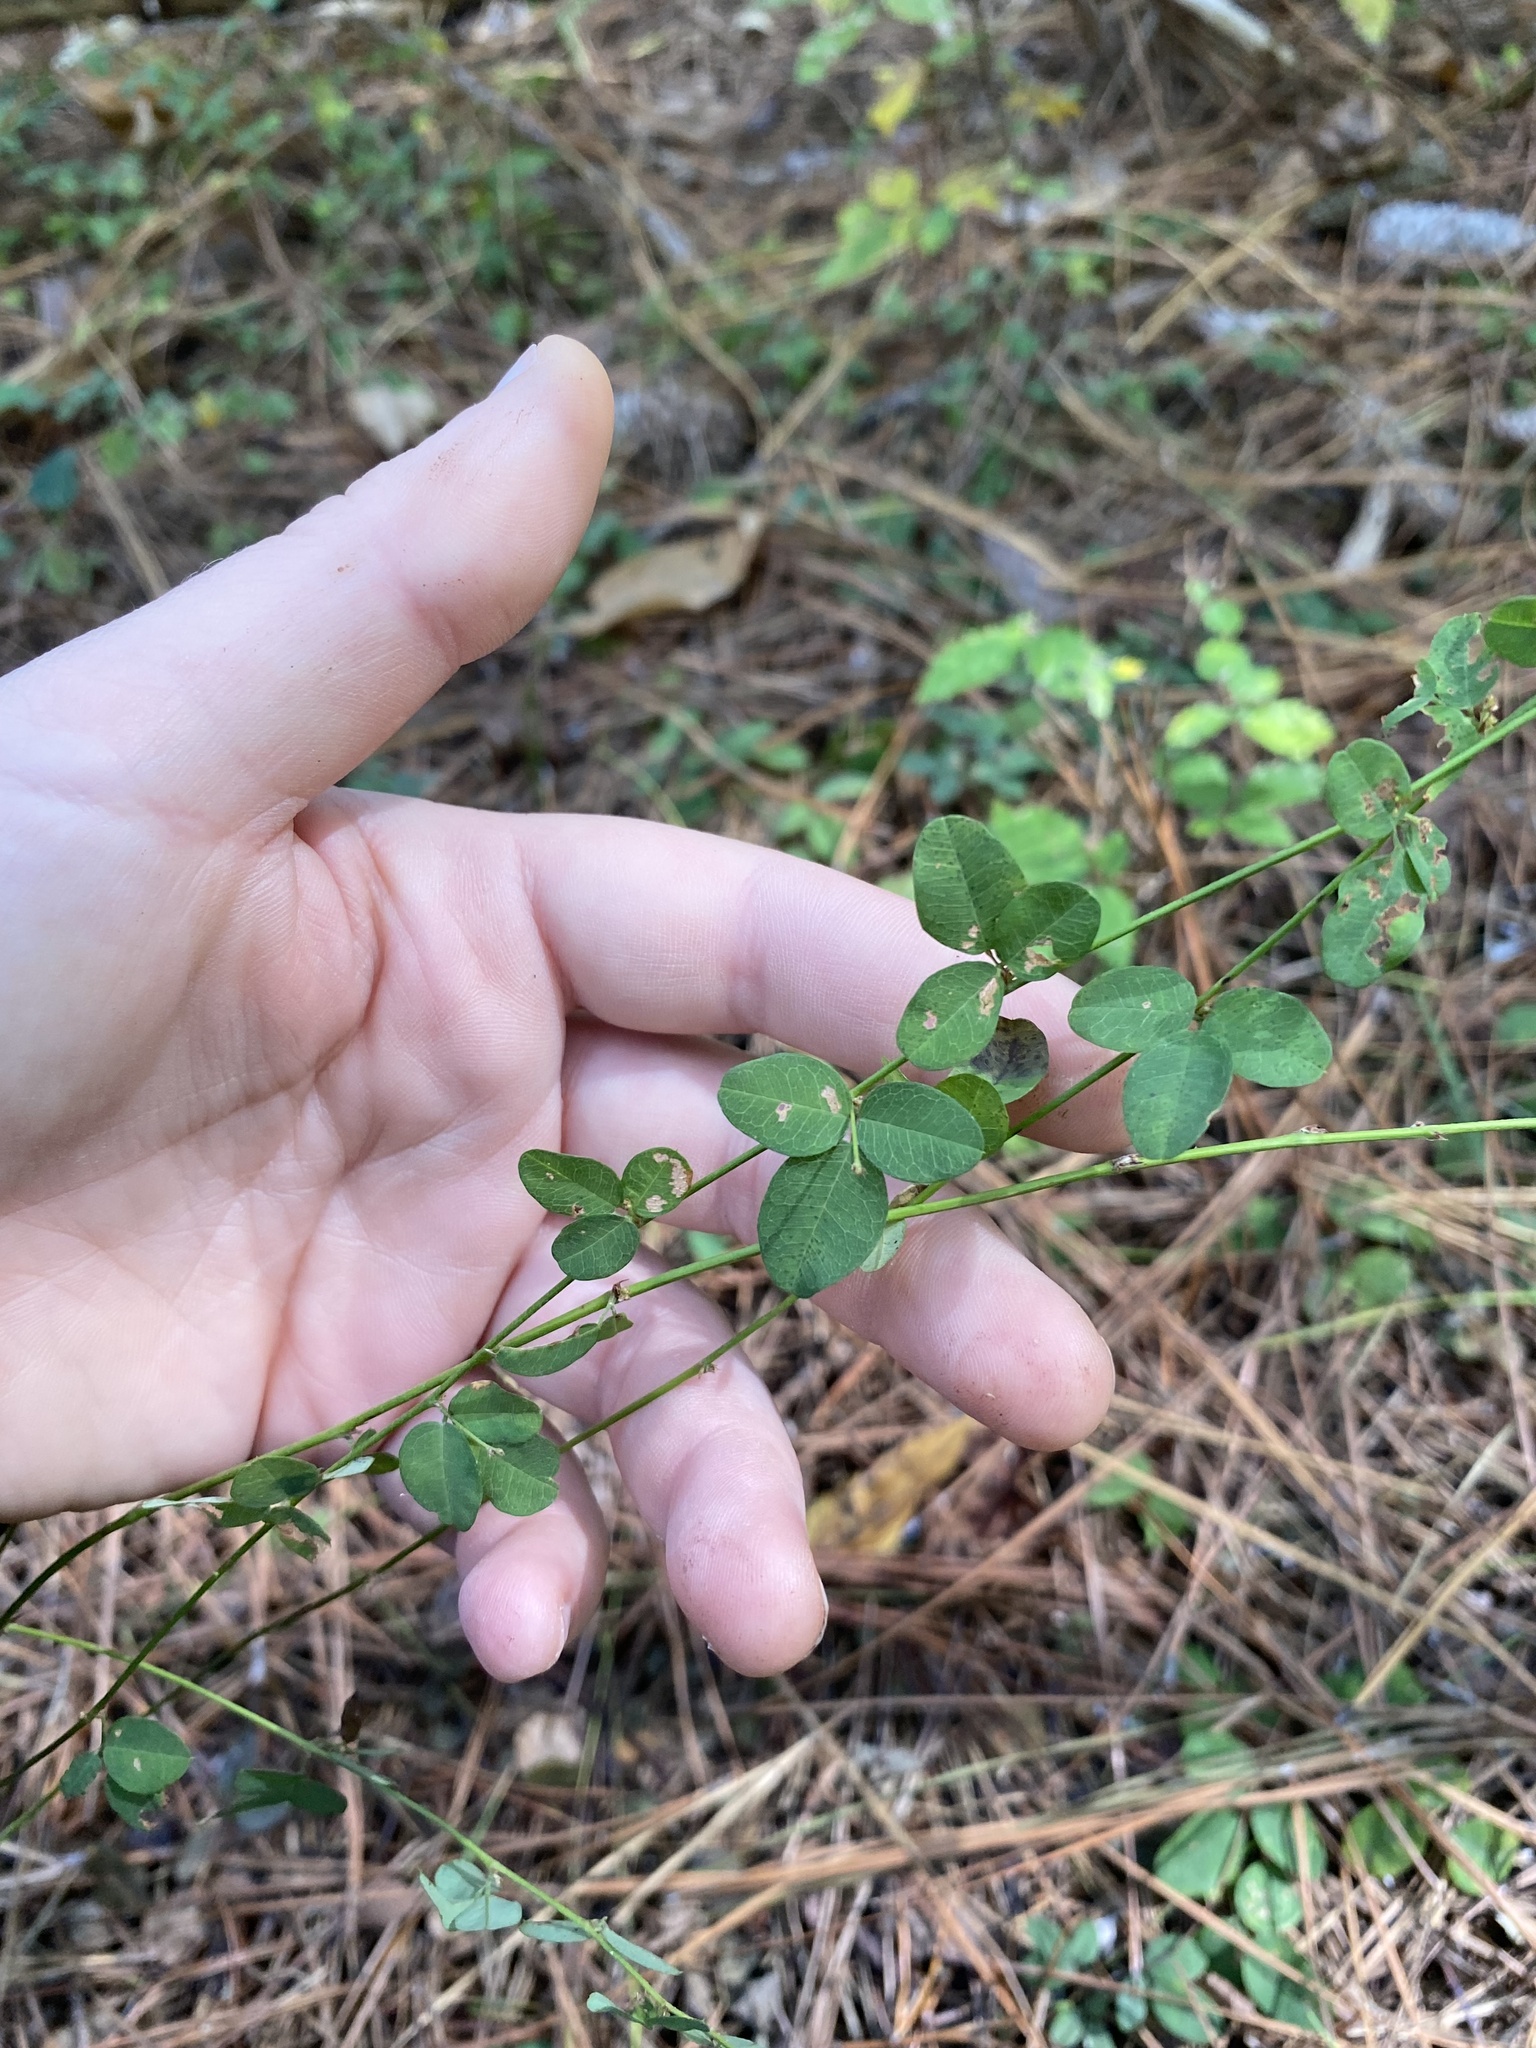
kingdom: Plantae
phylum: Tracheophyta
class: Magnoliopsida
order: Fabales
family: Fabaceae
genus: Lespedeza
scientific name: Lespedeza repens
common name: Creeping bush-clover
